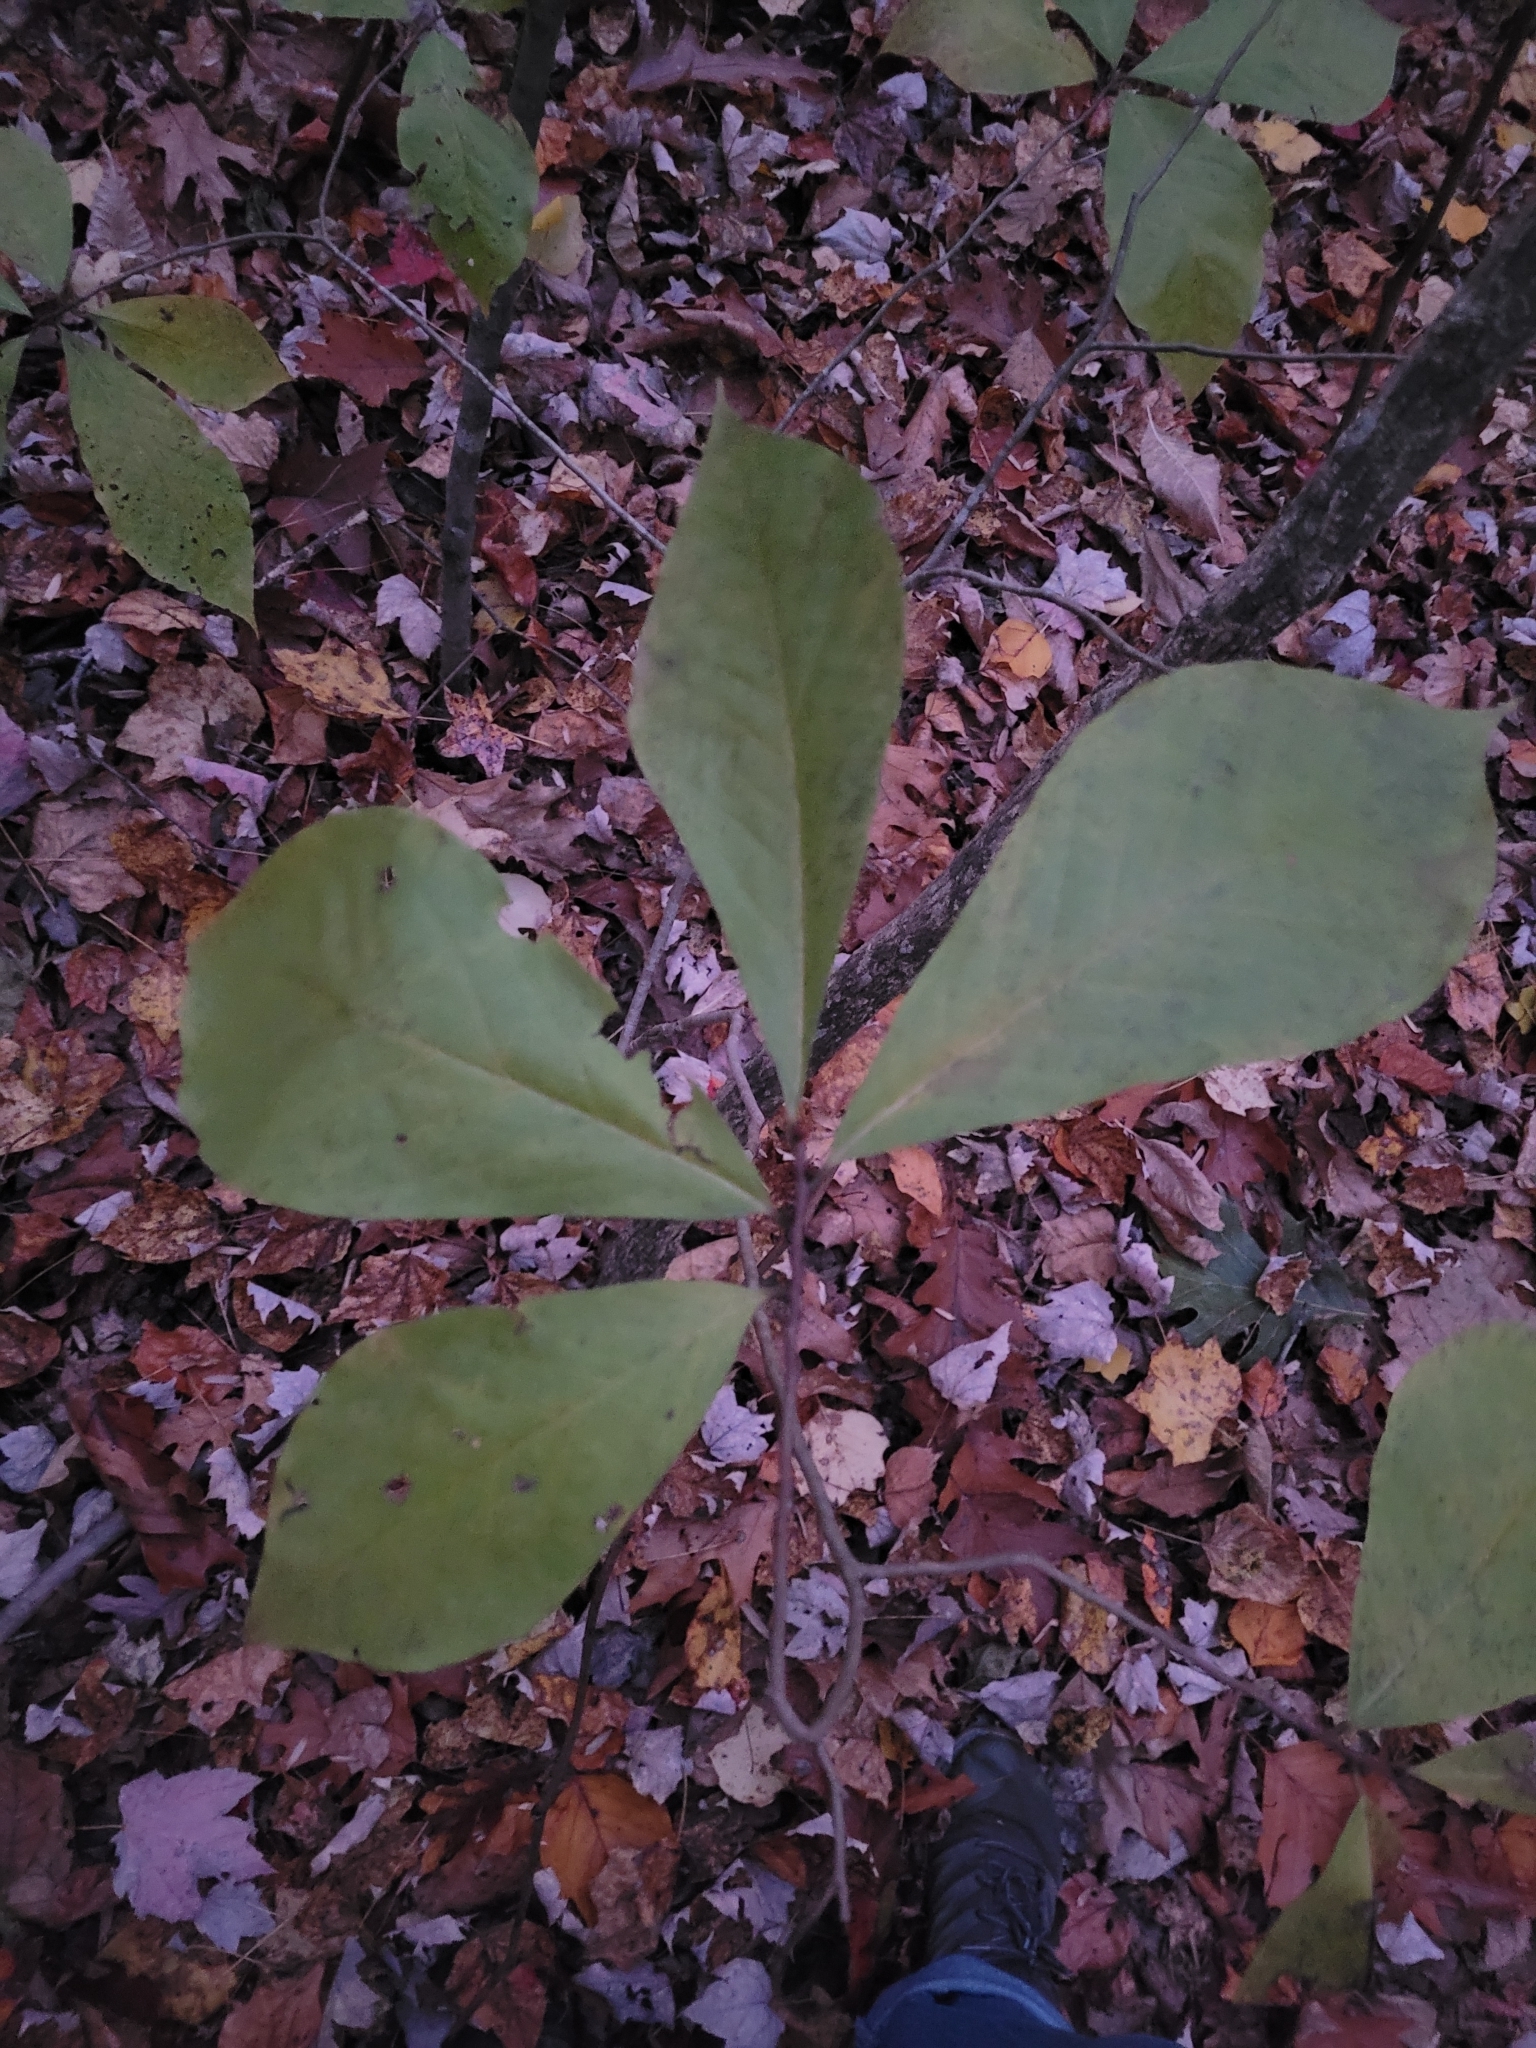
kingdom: Plantae
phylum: Tracheophyta
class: Magnoliopsida
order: Magnoliales
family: Annonaceae
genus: Asimina
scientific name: Asimina parviflora
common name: Dwarf pawpaw
